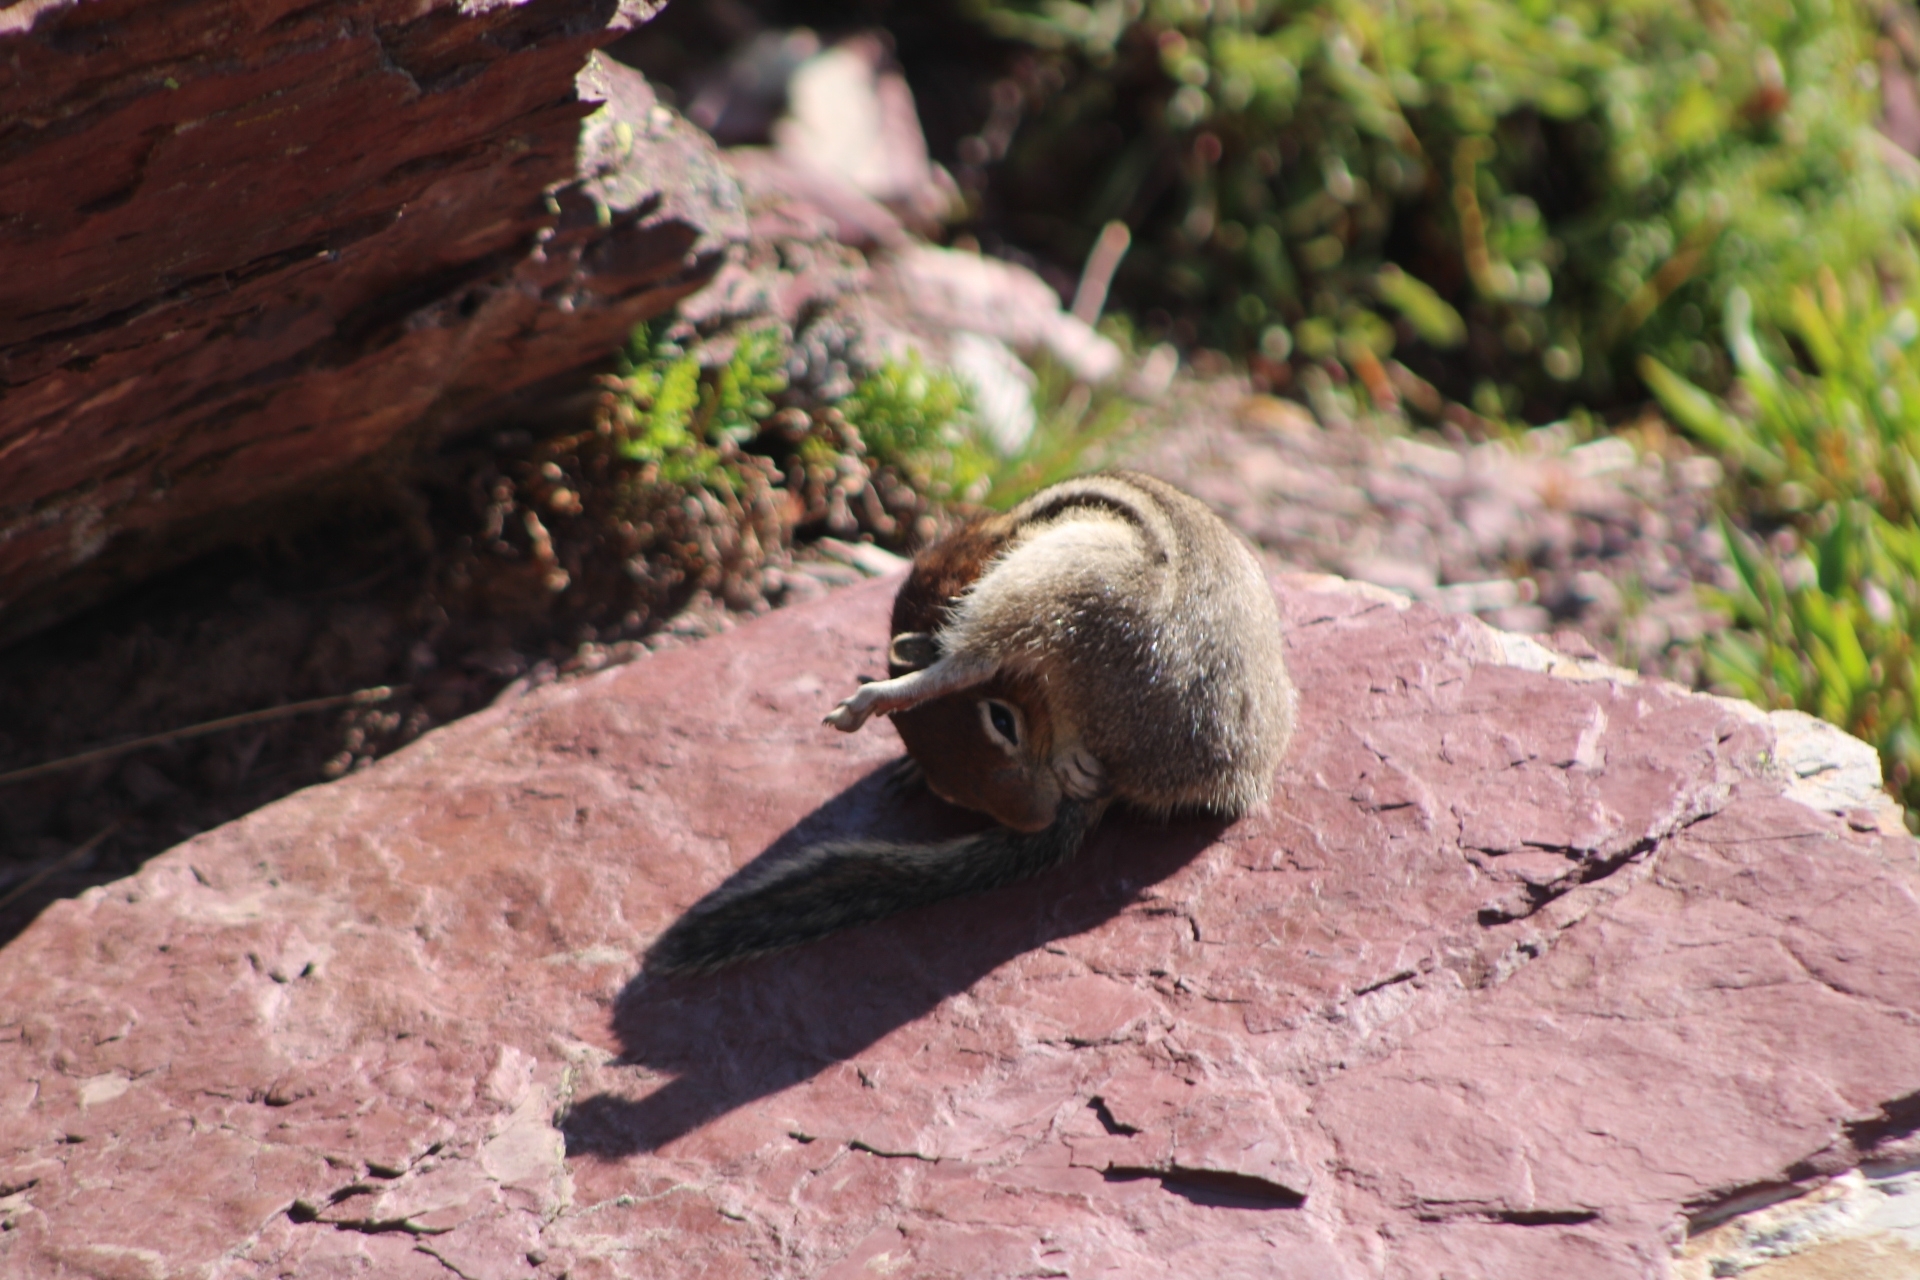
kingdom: Animalia
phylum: Chordata
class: Mammalia
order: Rodentia
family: Sciuridae
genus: Callospermophilus
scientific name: Callospermophilus lateralis
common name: Golden-mantled ground squirrel
